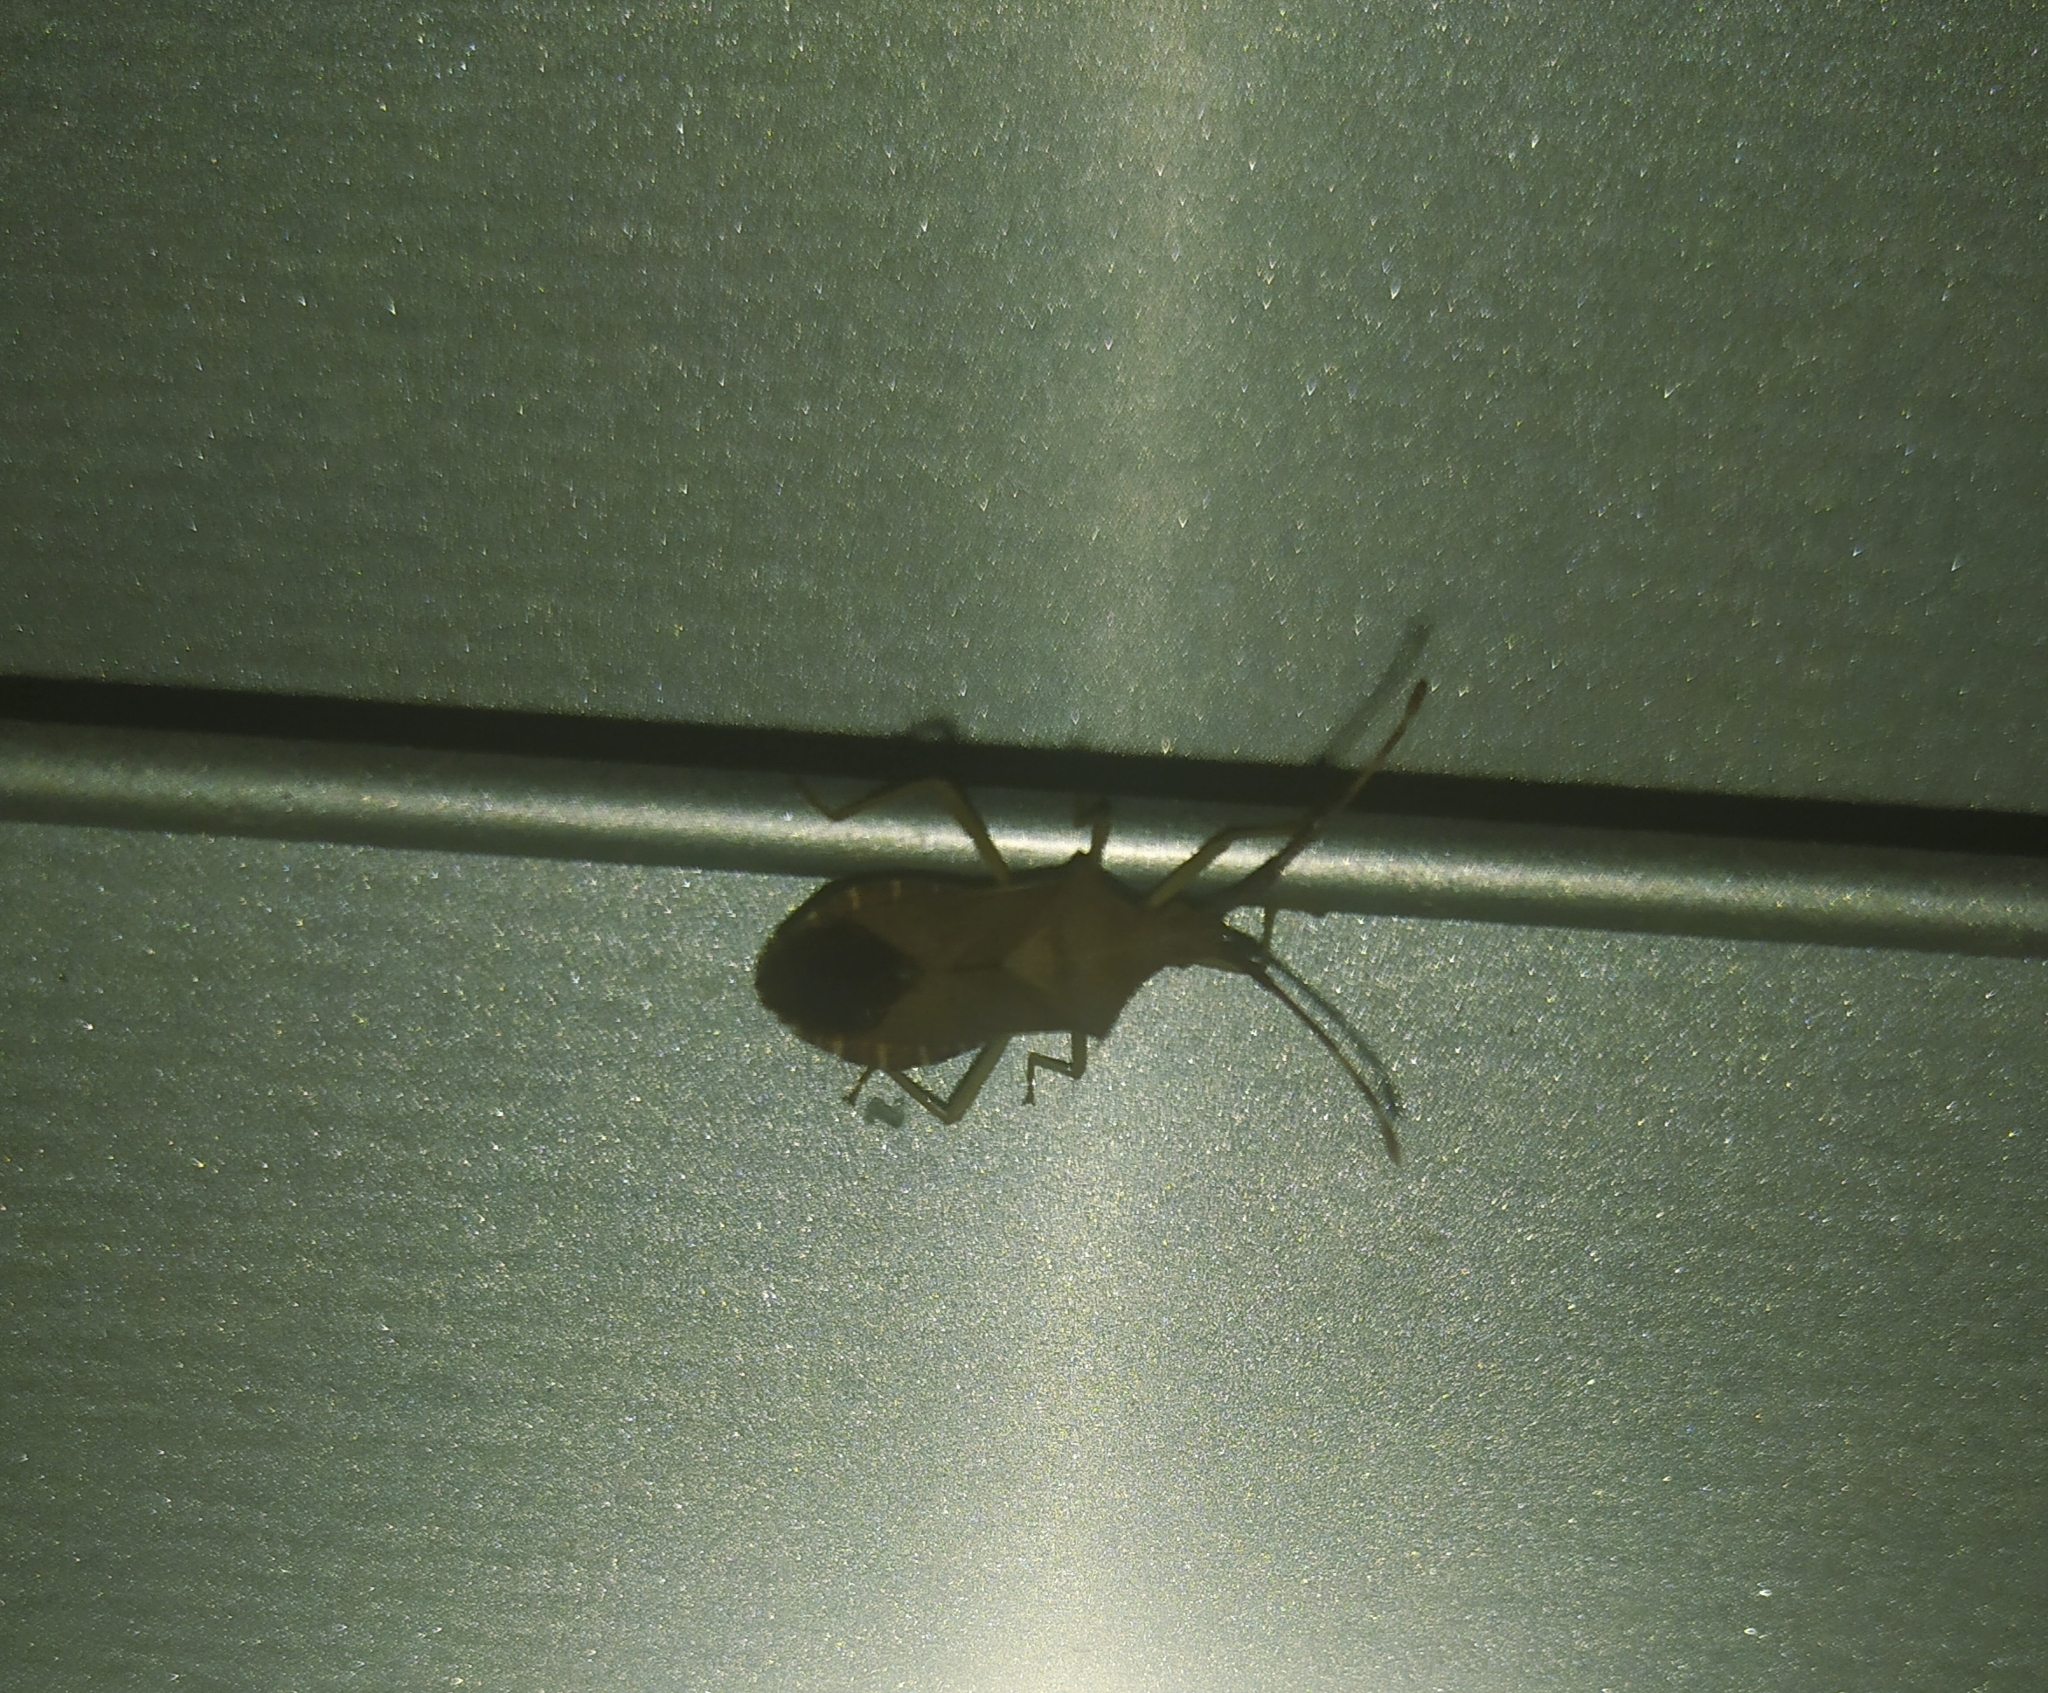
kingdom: Animalia
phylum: Arthropoda
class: Insecta
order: Hemiptera
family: Coreidae
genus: Gonocerus
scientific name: Gonocerus acuteangulatus
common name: Box bug
